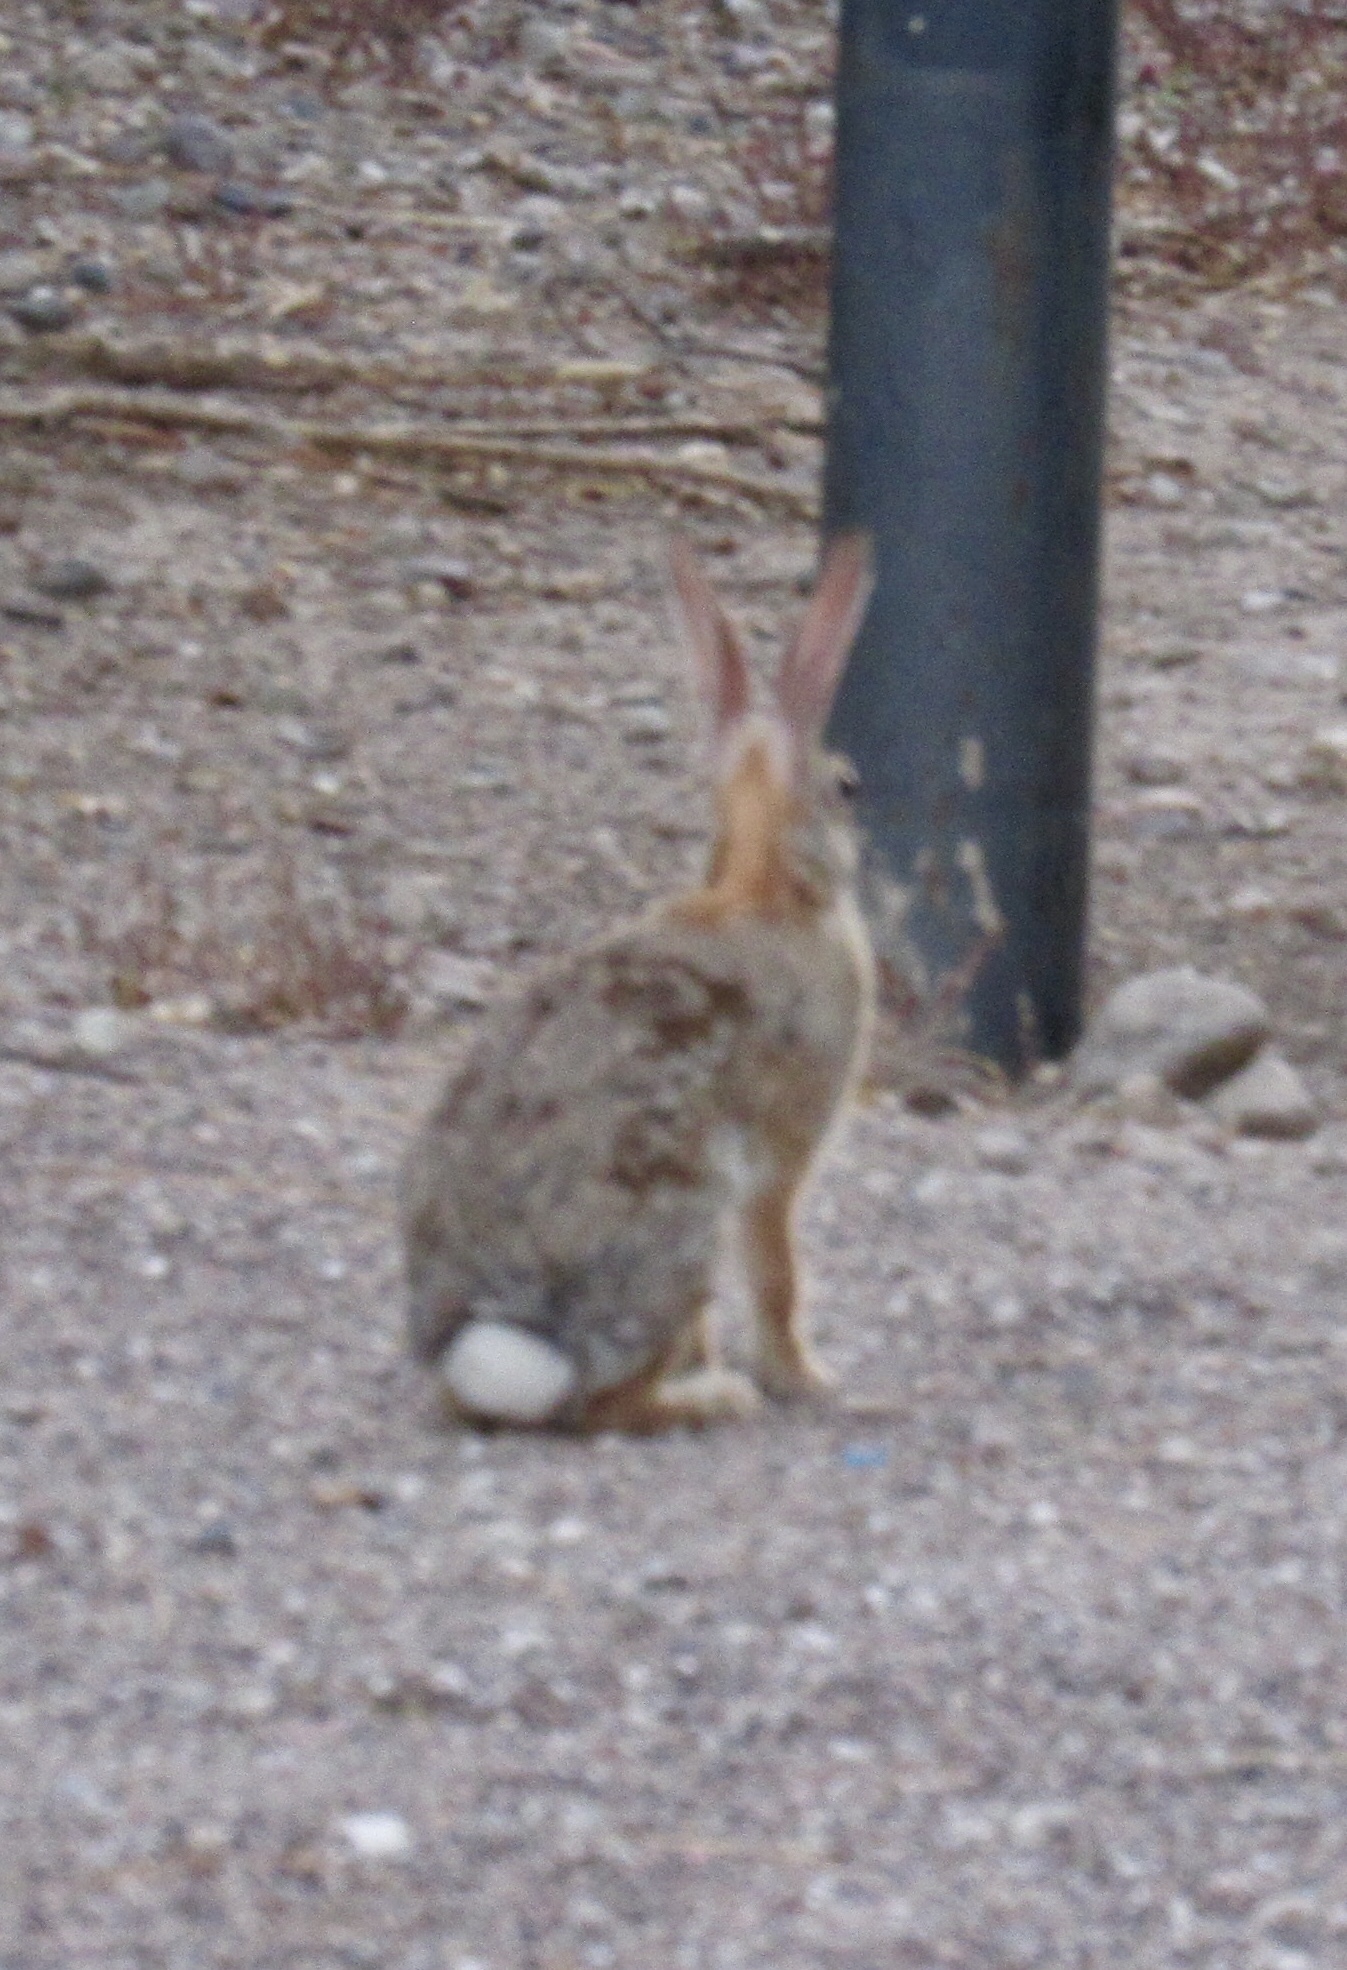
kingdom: Animalia
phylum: Chordata
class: Mammalia
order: Lagomorpha
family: Leporidae
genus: Sylvilagus
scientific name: Sylvilagus audubonii
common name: Desert cottontail
